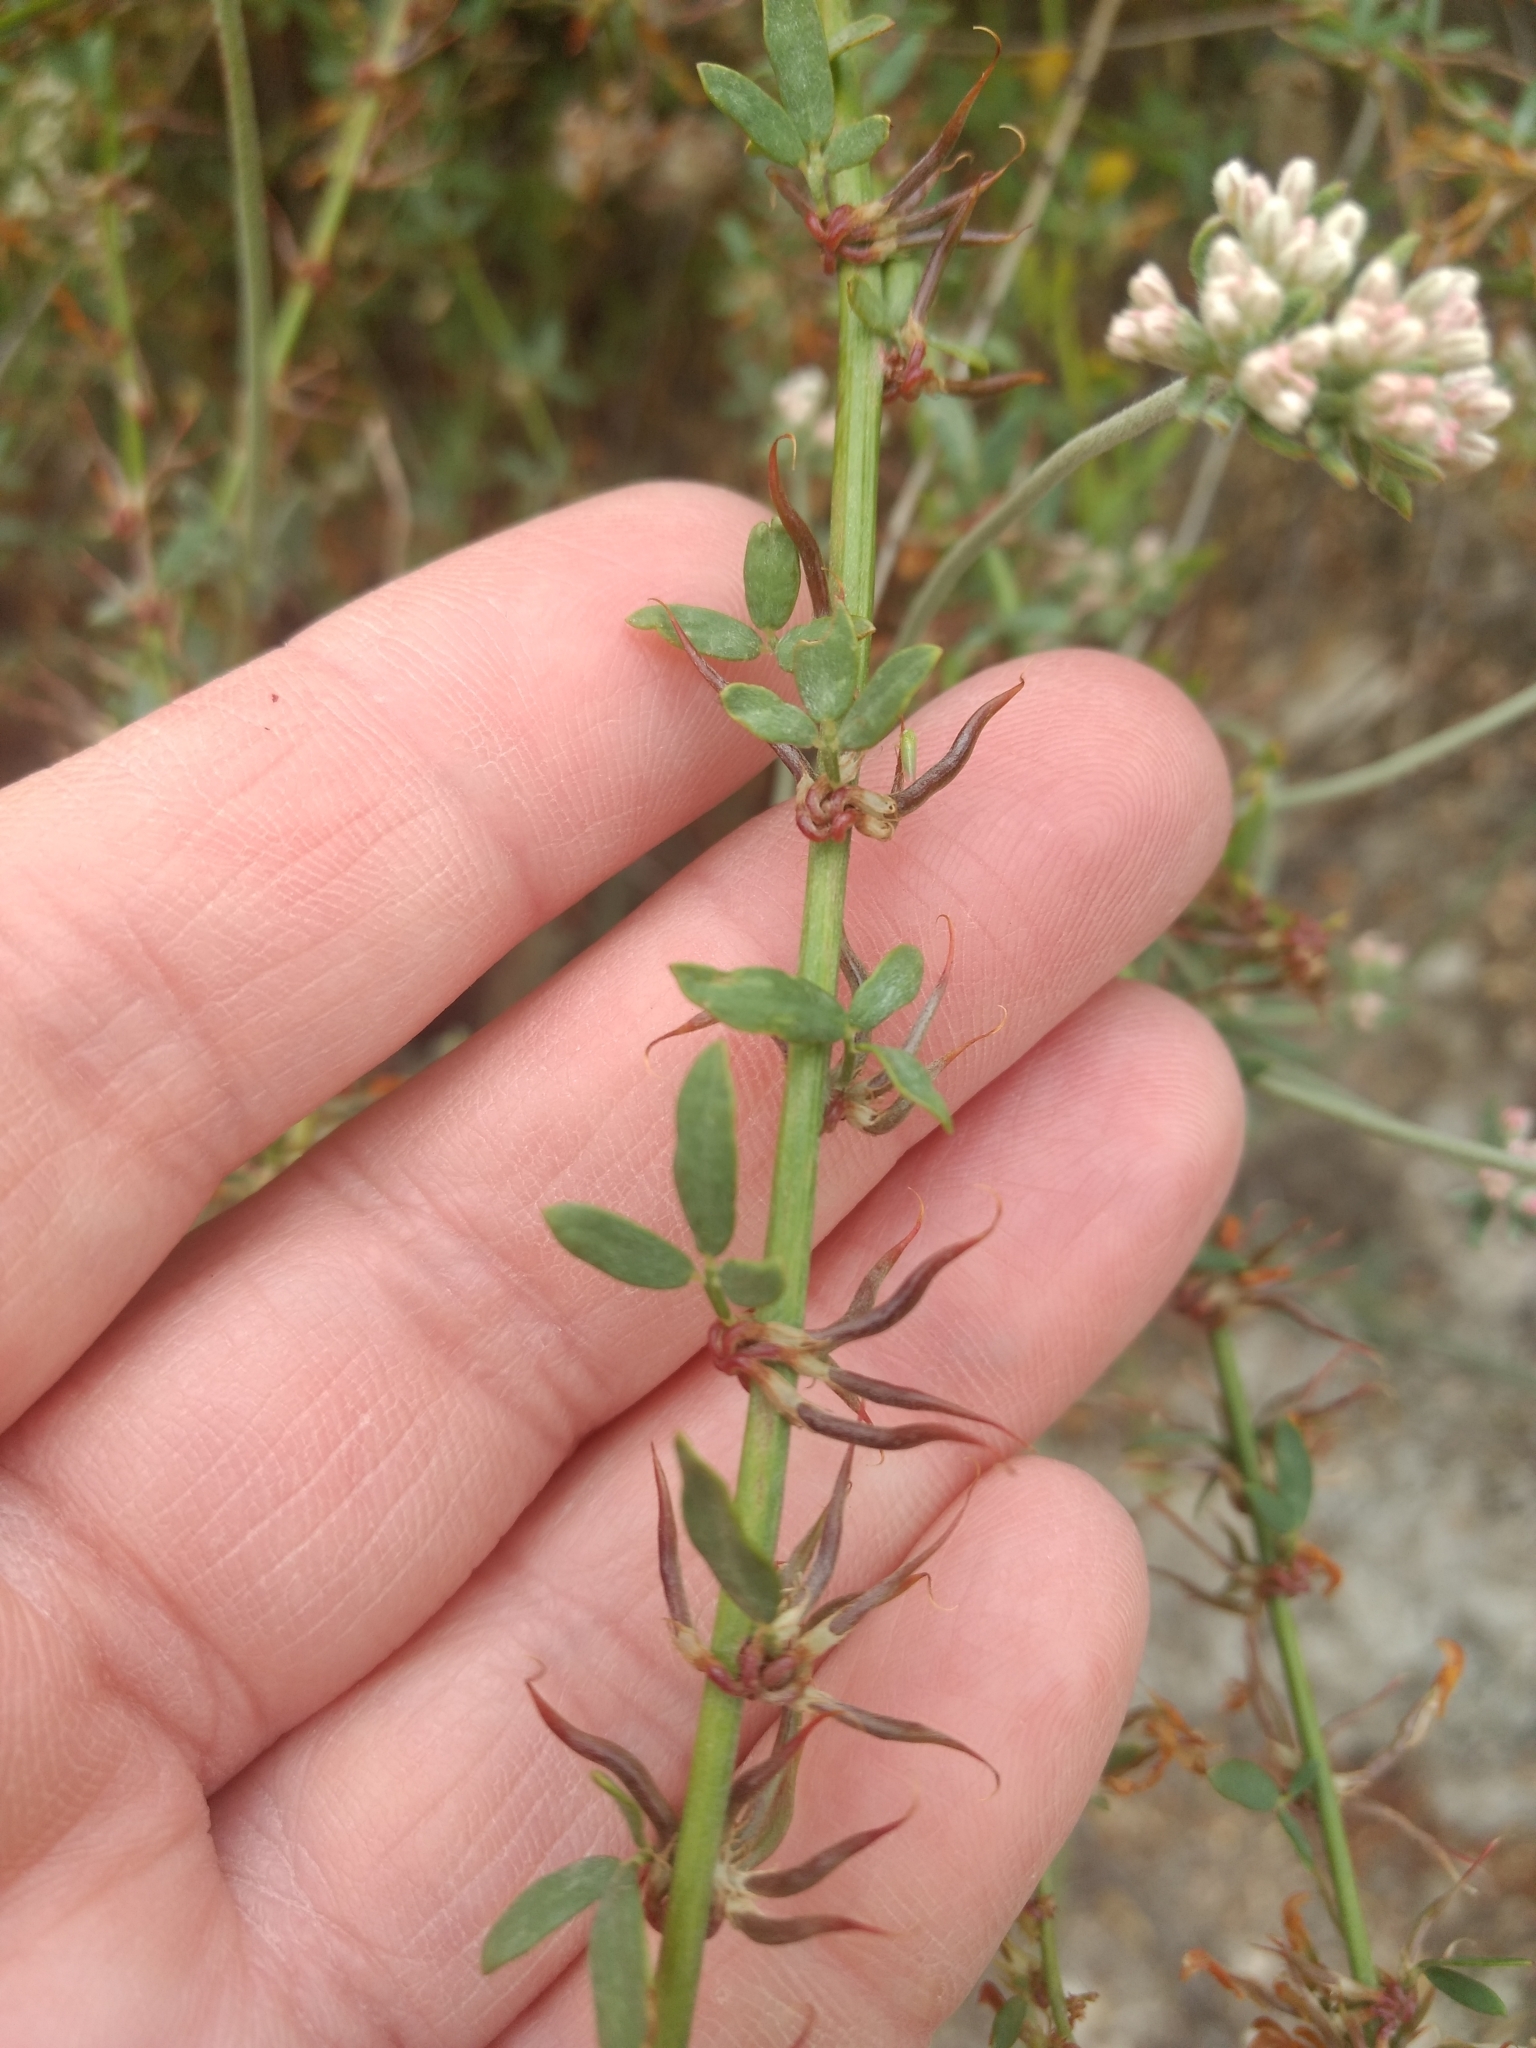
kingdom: Plantae
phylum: Tracheophyta
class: Magnoliopsida
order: Fabales
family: Fabaceae
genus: Acmispon
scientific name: Acmispon glaber
